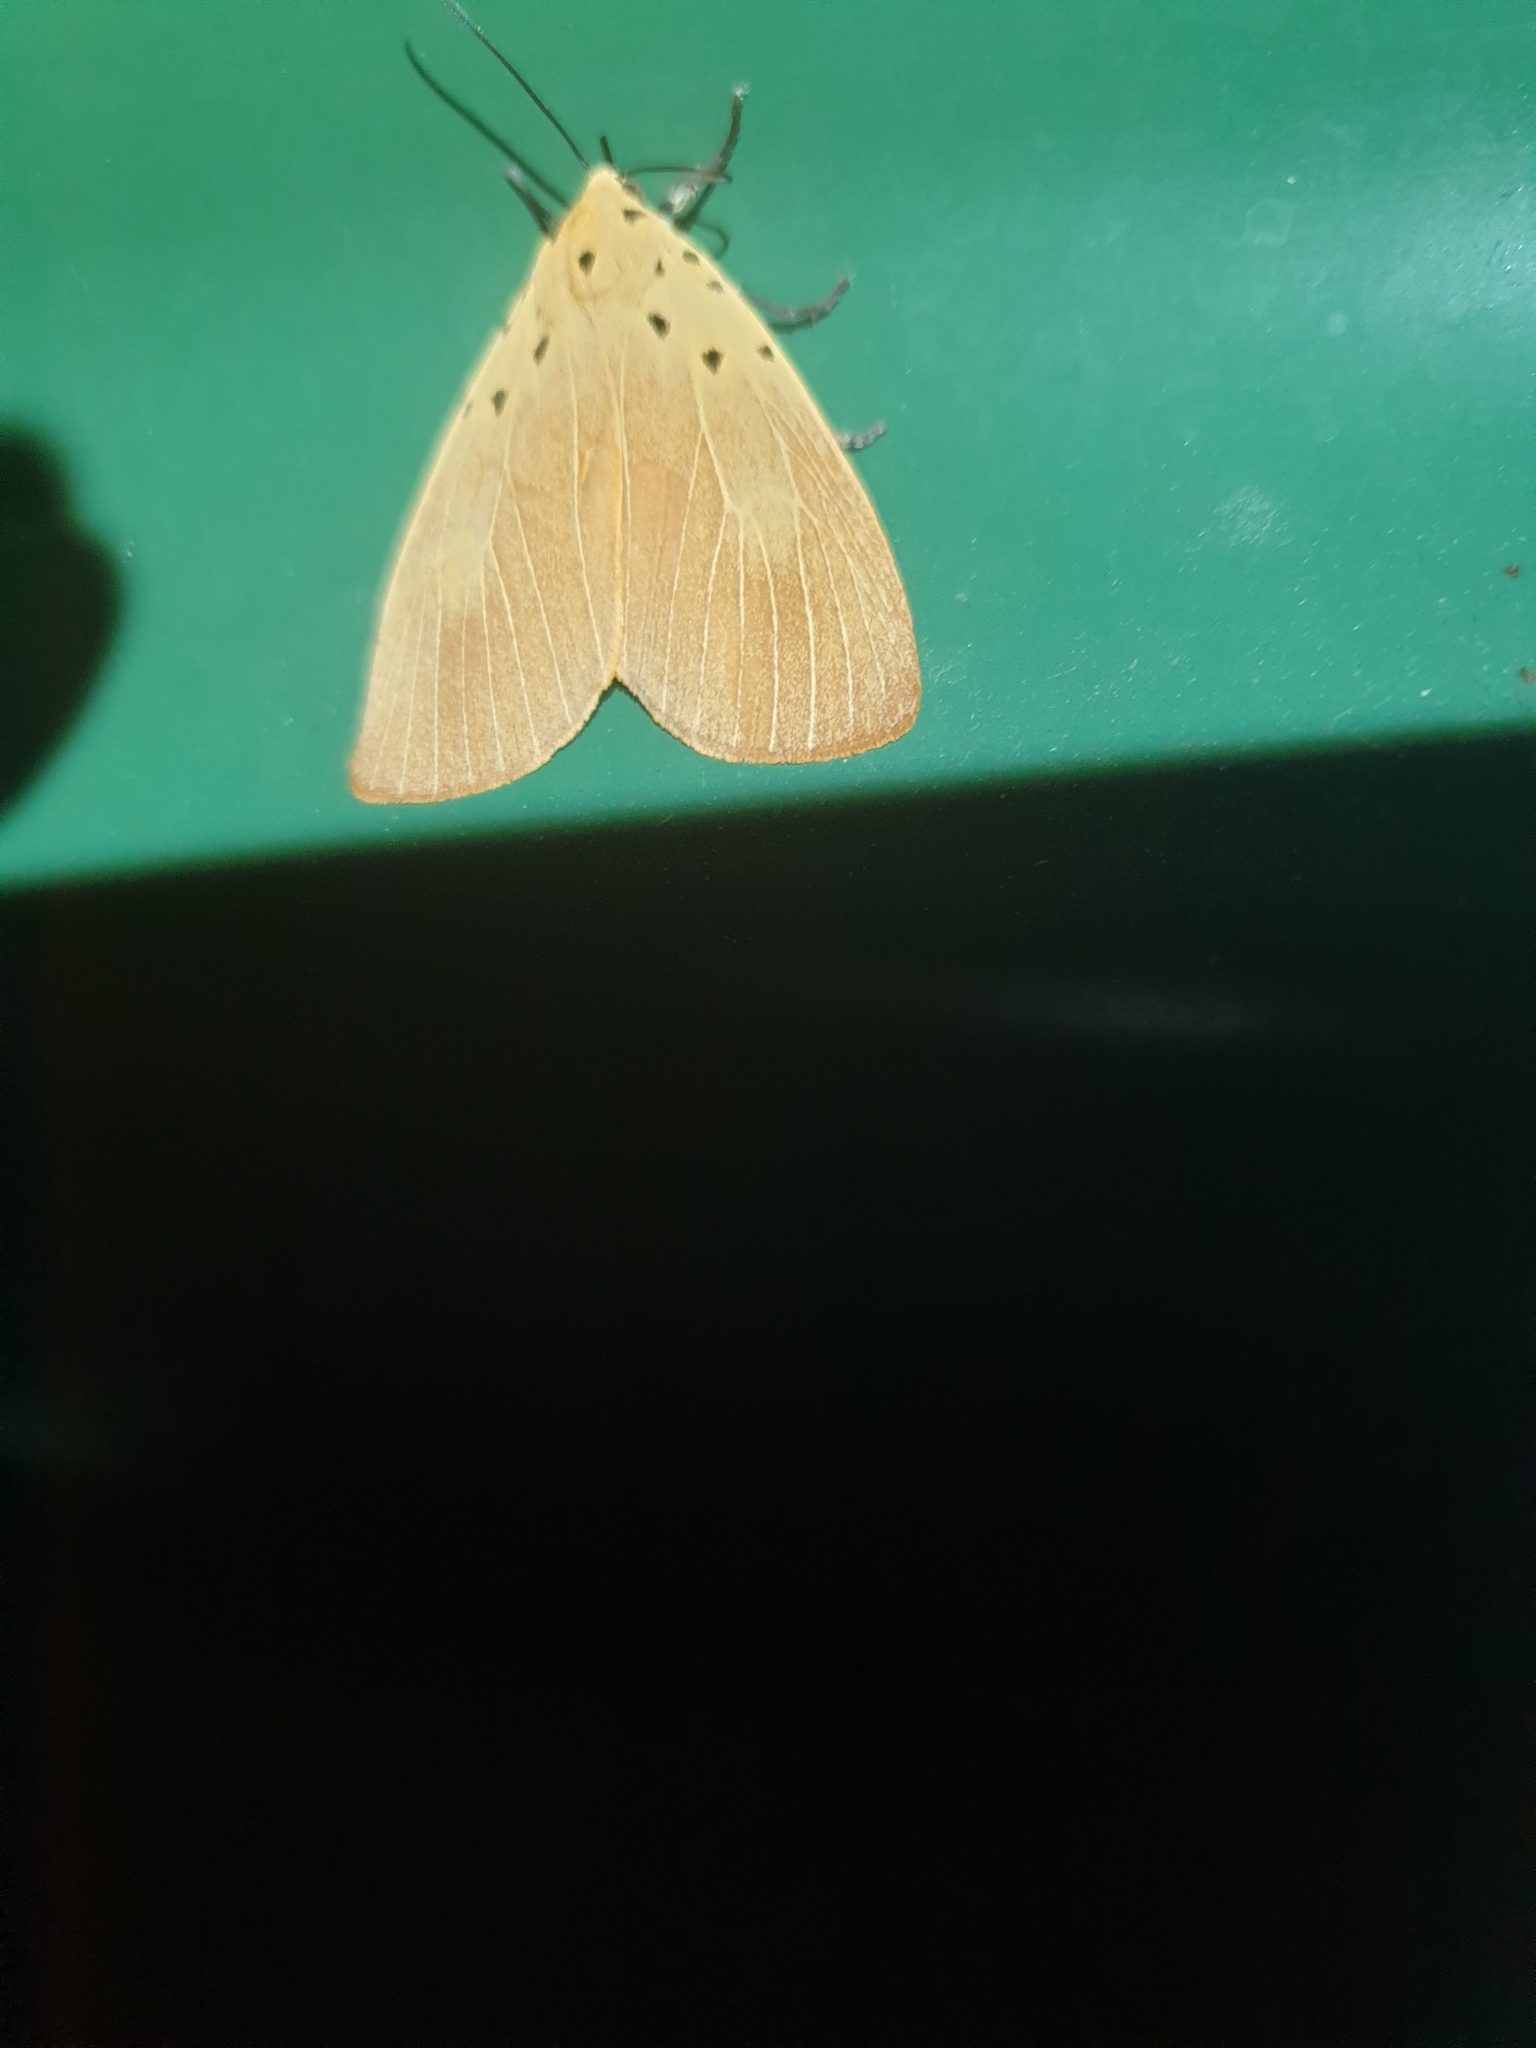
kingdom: Animalia
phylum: Arthropoda
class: Insecta
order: Lepidoptera
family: Erebidae
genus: Asota
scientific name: Asota iodamia
